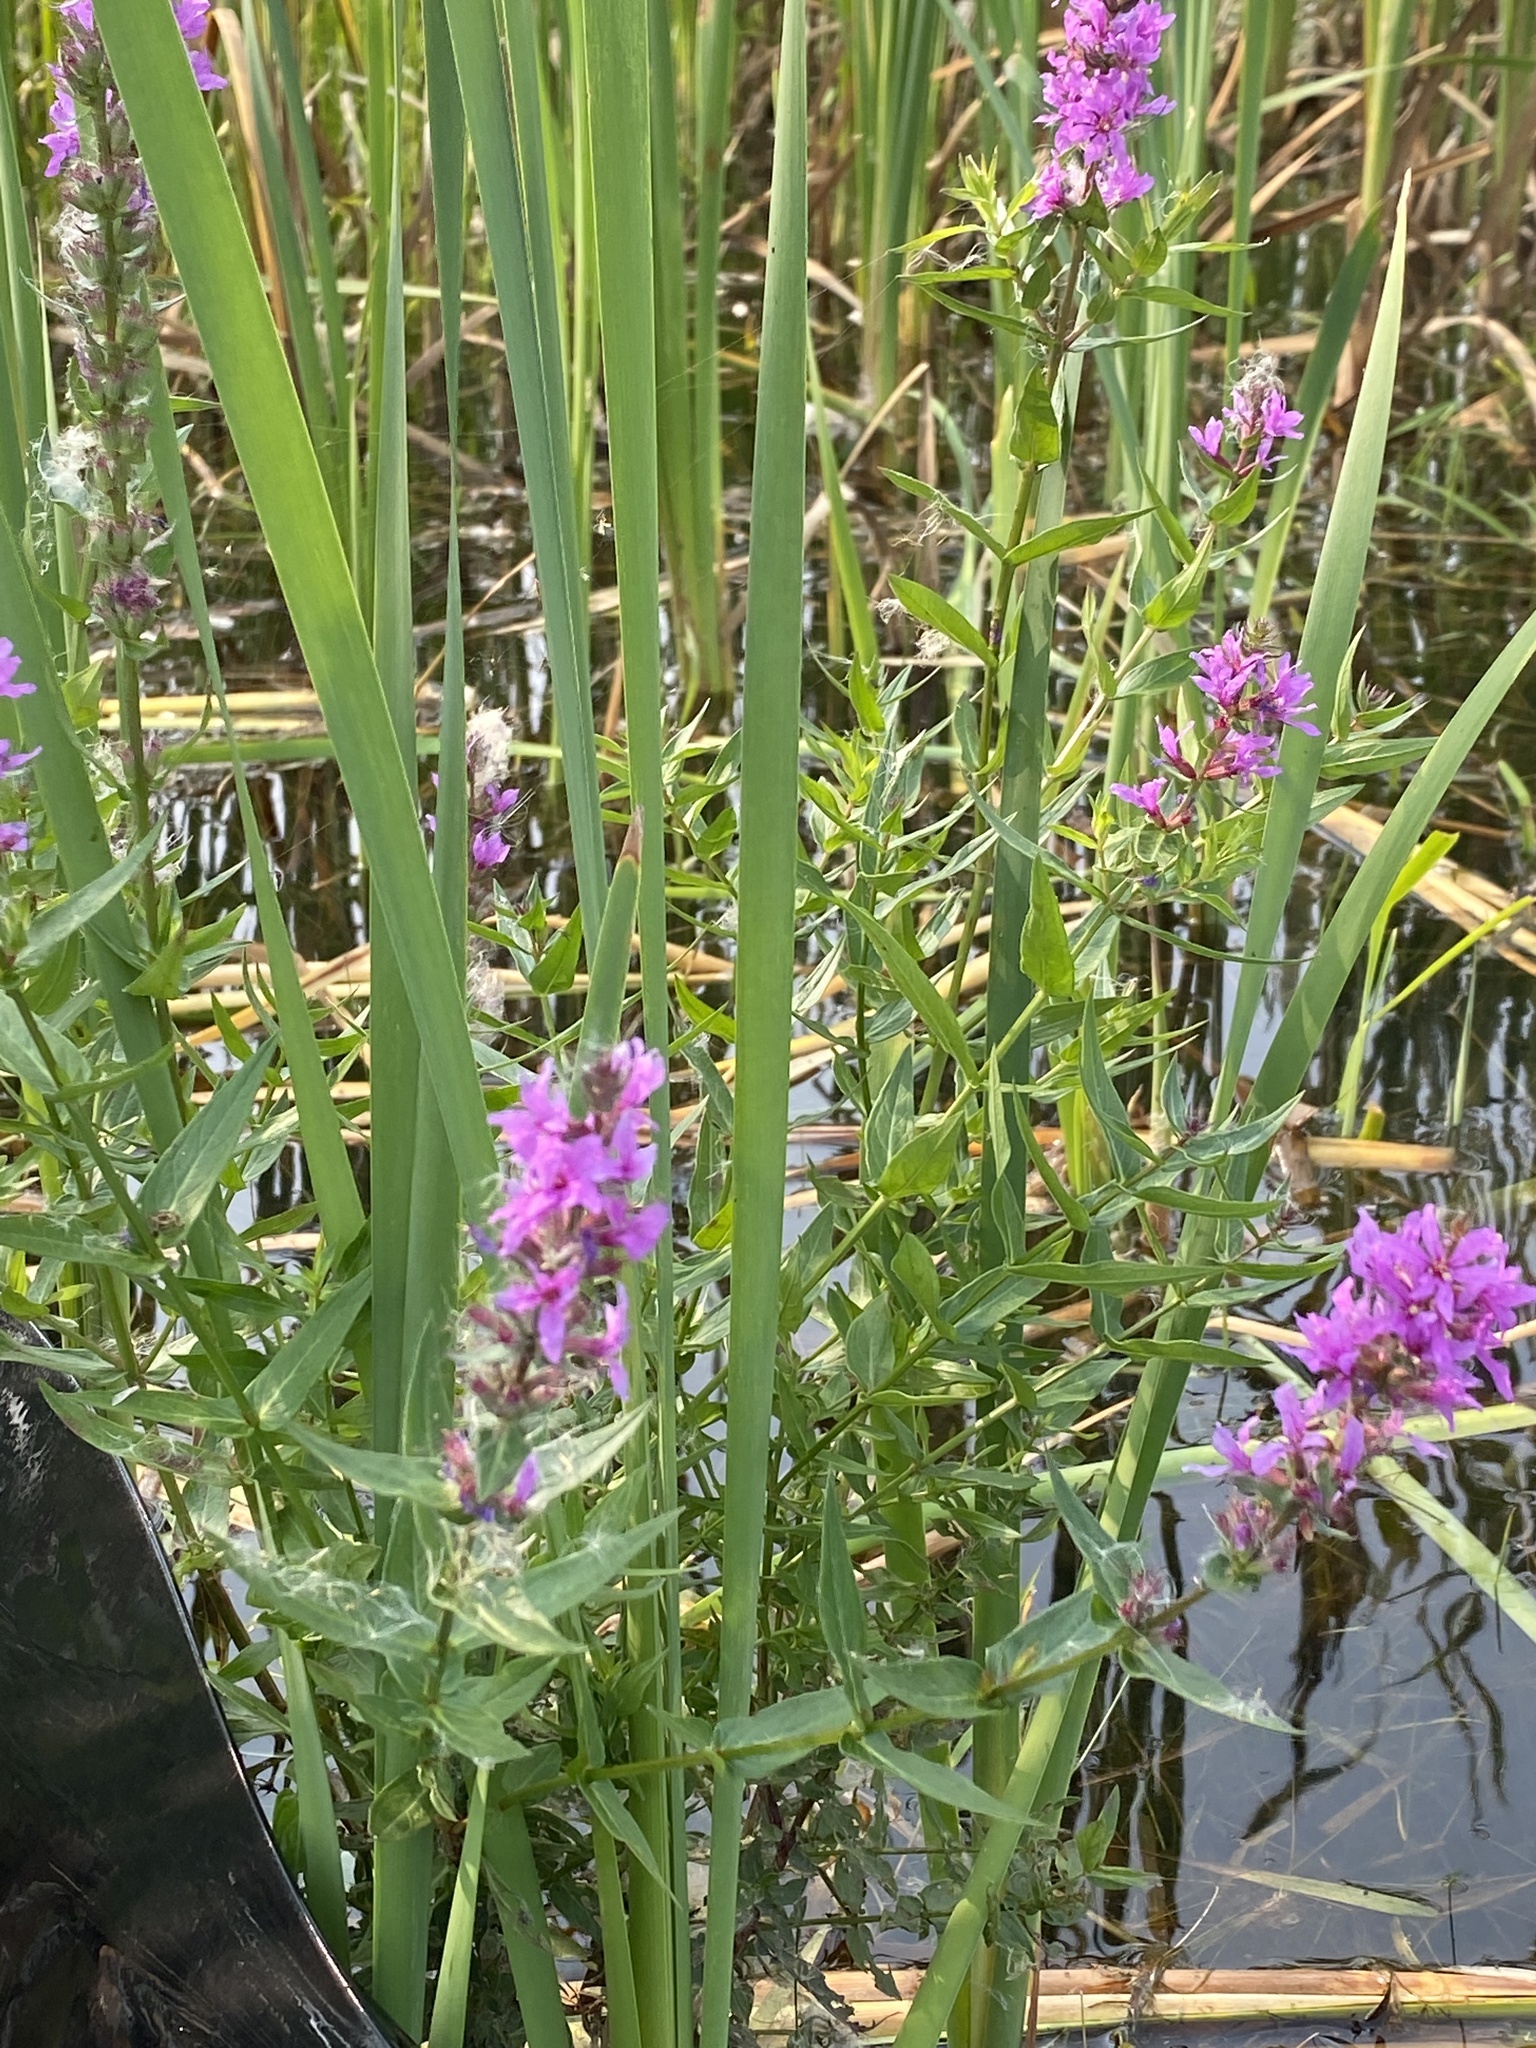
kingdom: Plantae
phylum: Tracheophyta
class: Magnoliopsida
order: Myrtales
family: Lythraceae
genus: Lythrum
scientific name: Lythrum salicaria
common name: Purple loosestrife
